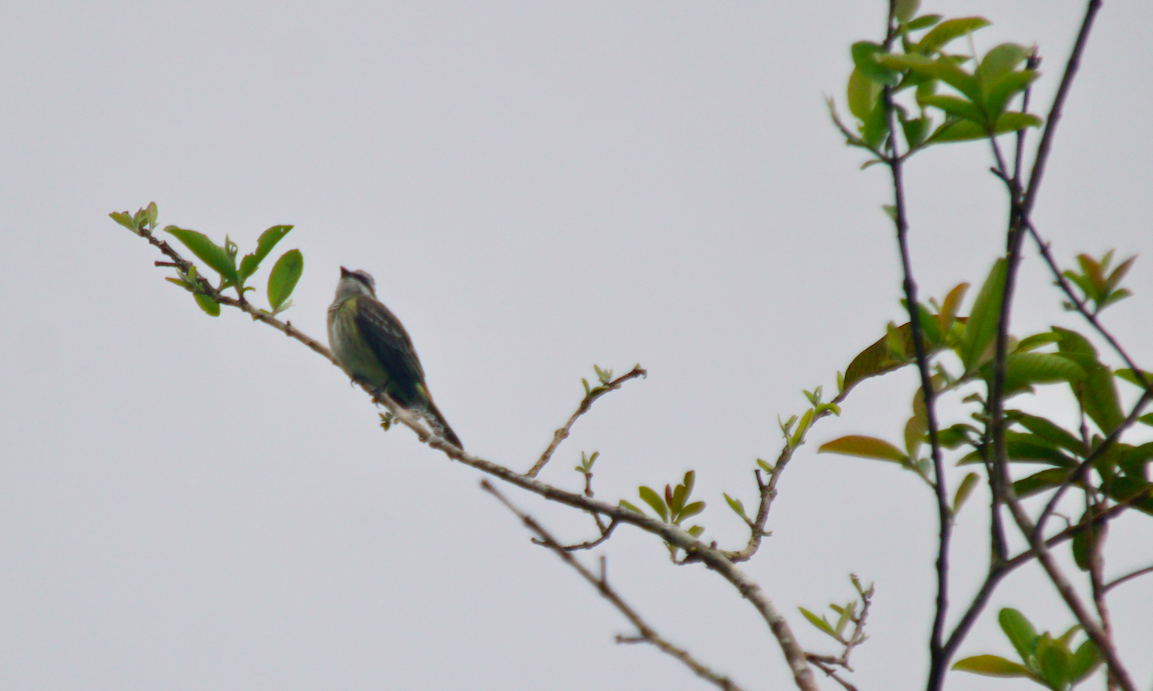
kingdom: Animalia
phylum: Chordata
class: Aves
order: Passeriformes
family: Tyrannidae
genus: Legatus
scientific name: Legatus leucophaius
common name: Piratic flycatcher
